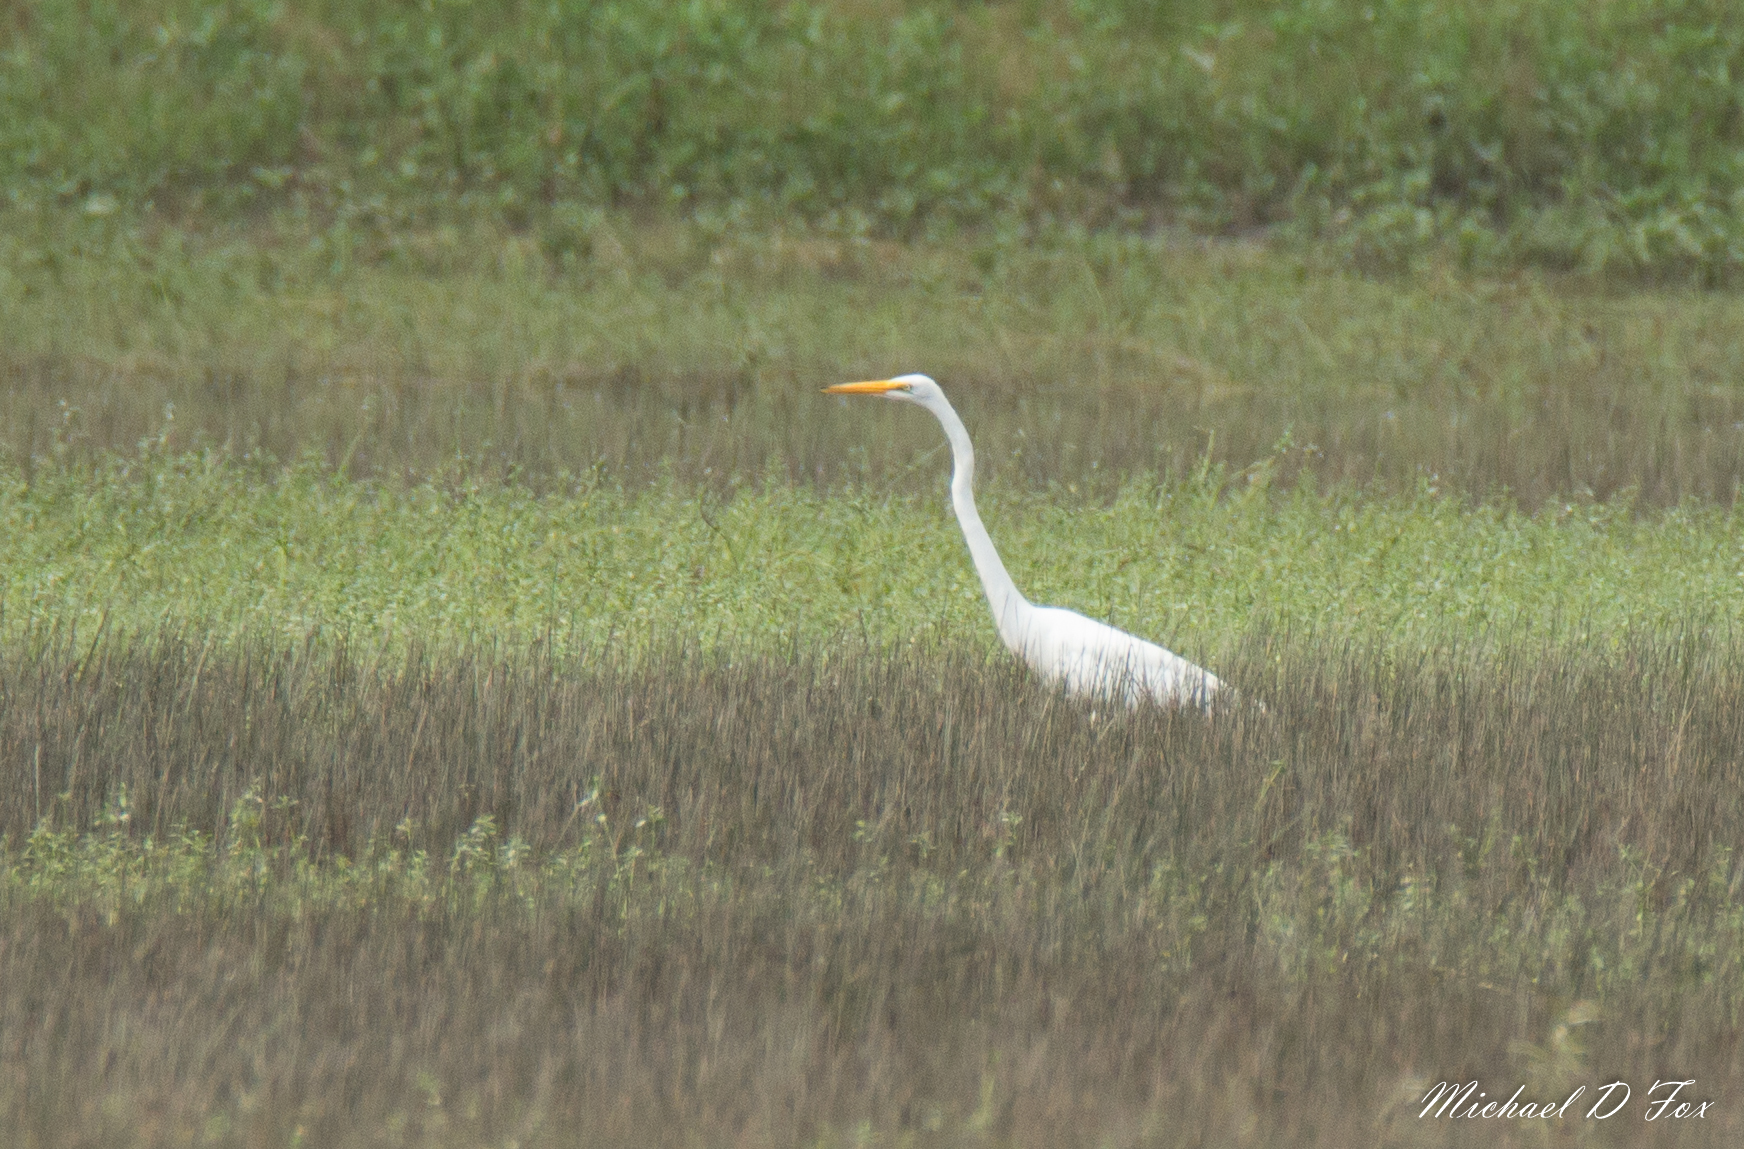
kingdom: Animalia
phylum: Chordata
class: Aves
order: Pelecaniformes
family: Ardeidae
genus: Ardea
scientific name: Ardea alba
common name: Great egret
